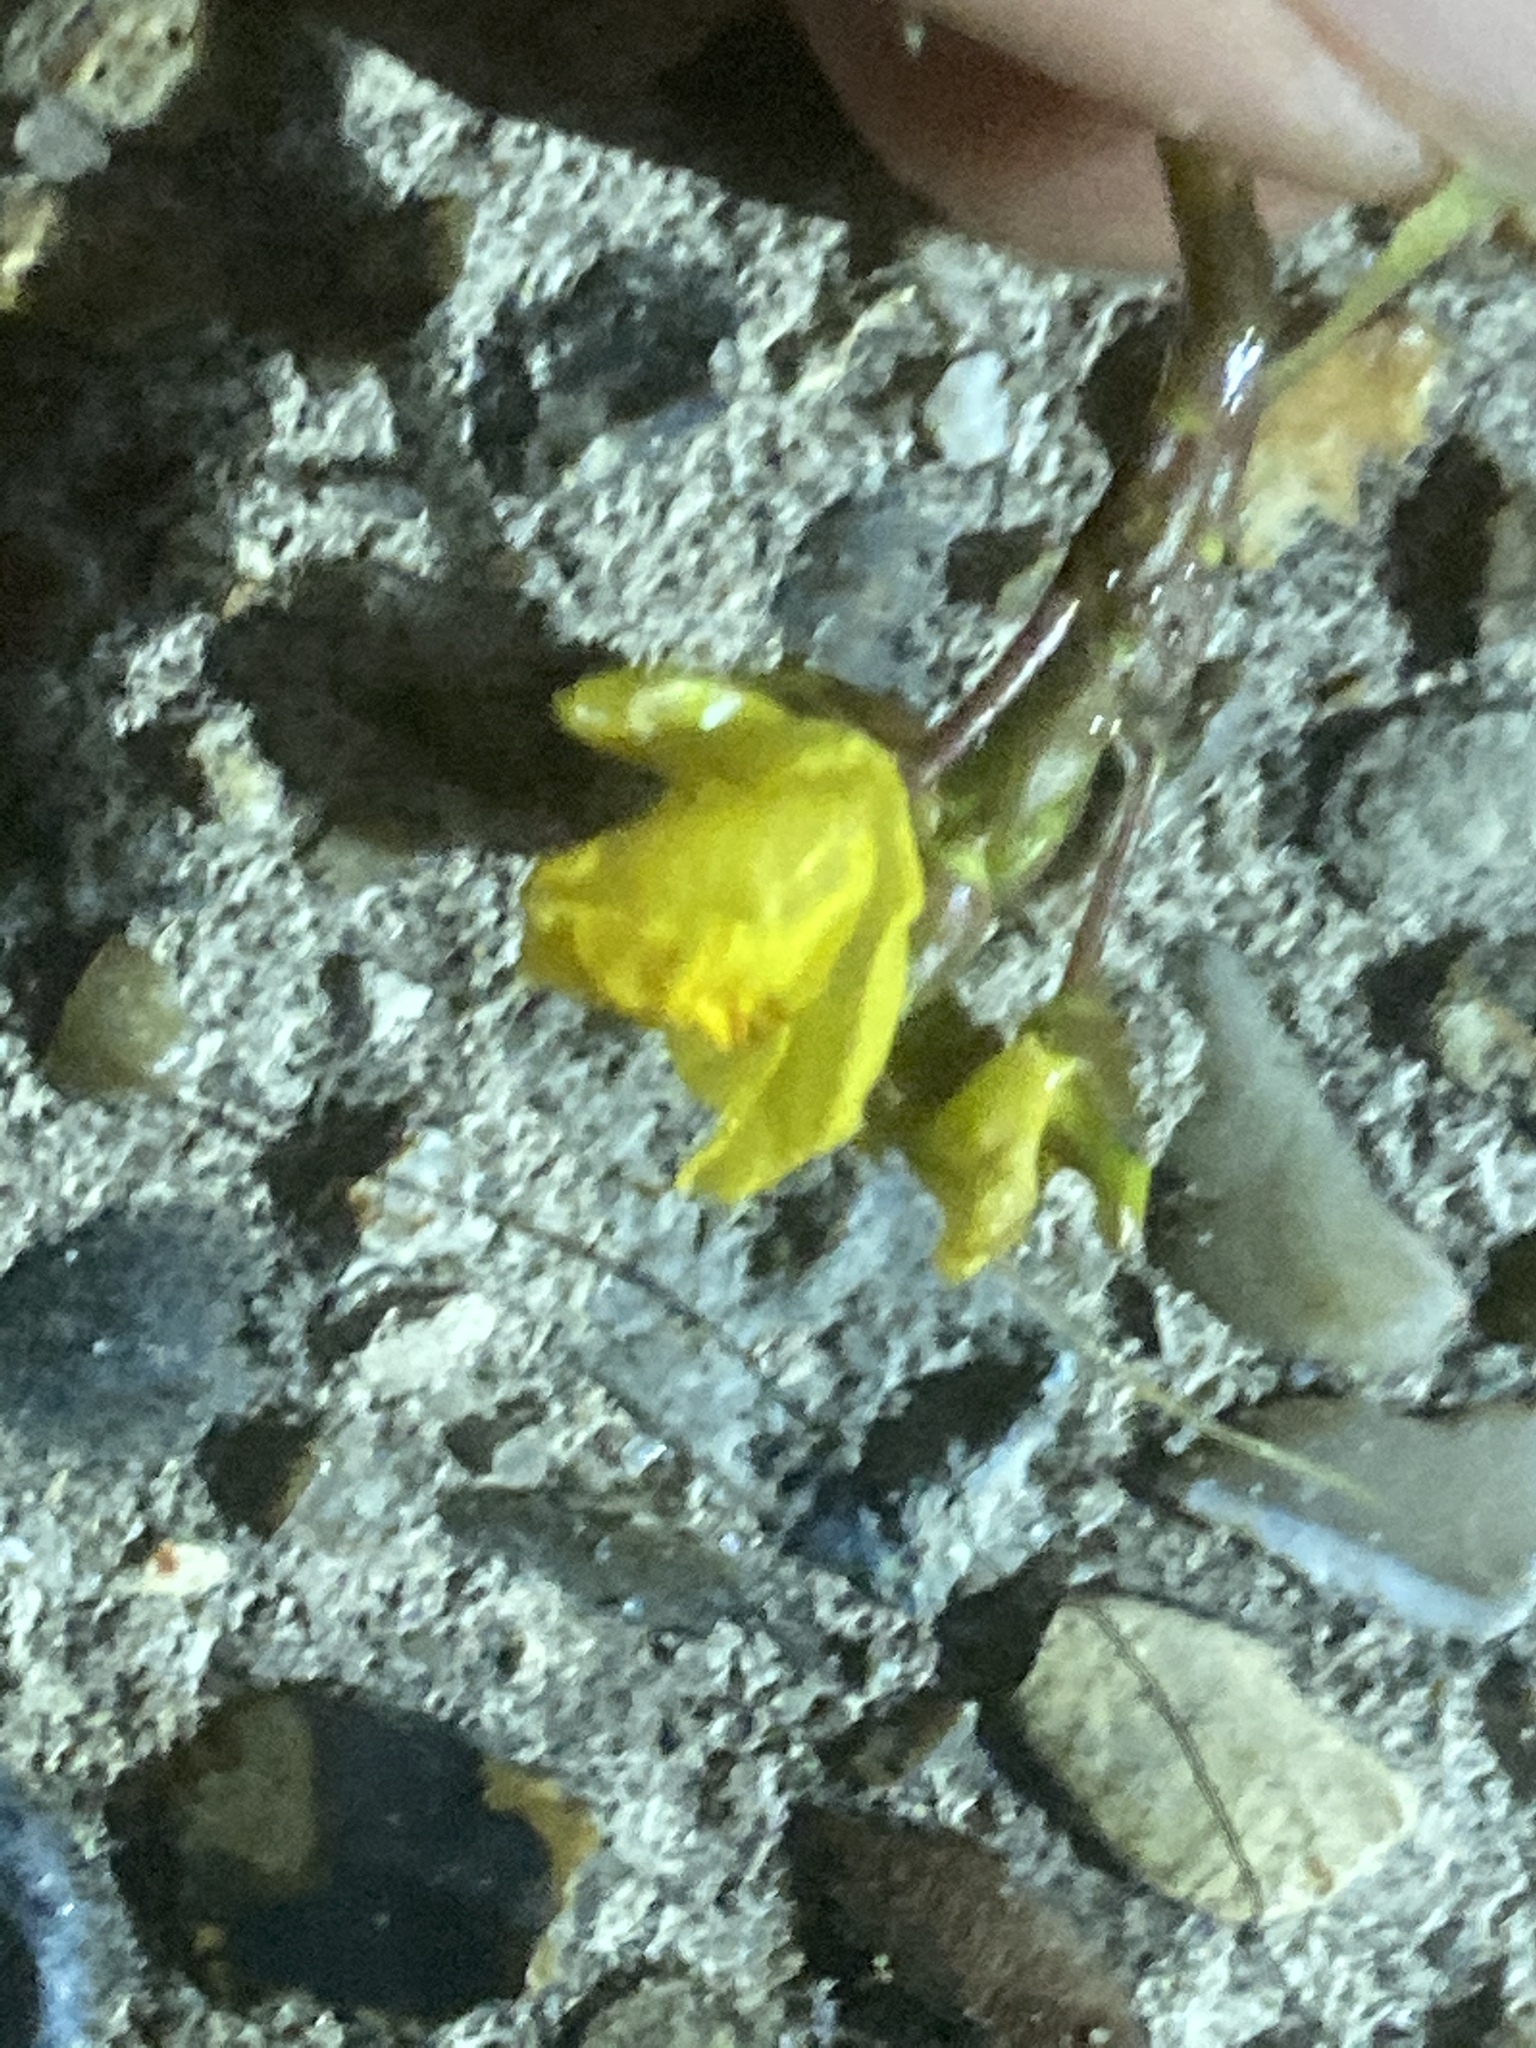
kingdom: Plantae
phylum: Tracheophyta
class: Magnoliopsida
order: Lamiales
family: Lentibulariaceae
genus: Utricularia
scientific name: Utricularia australis
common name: Bladderwort
